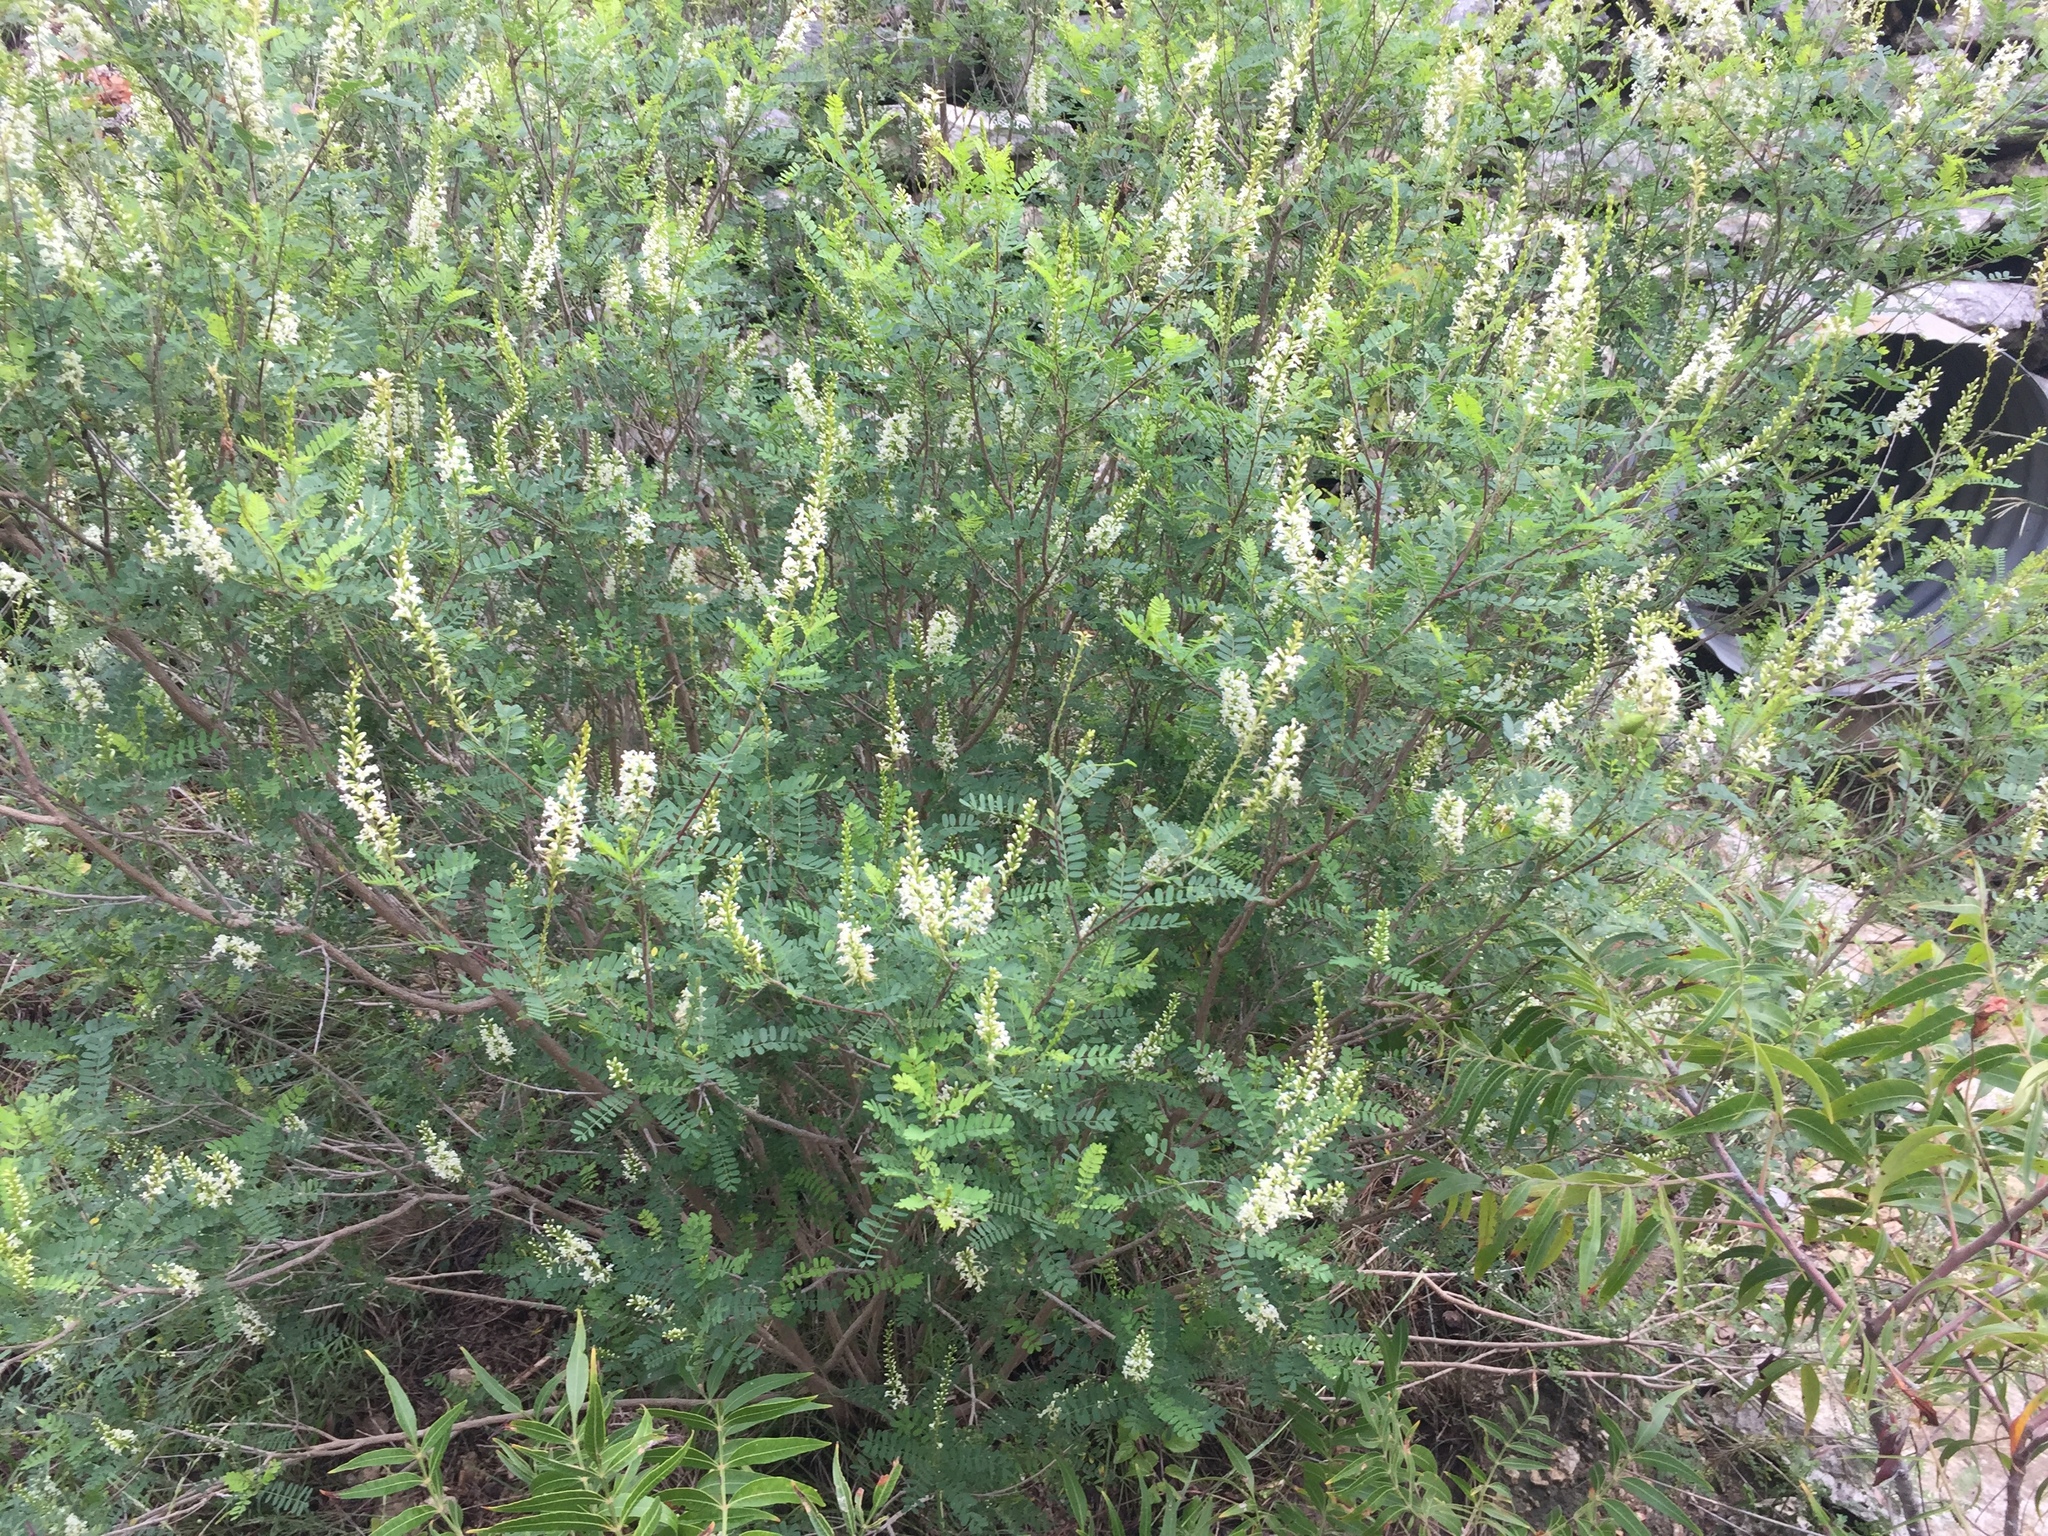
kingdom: Plantae
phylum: Tracheophyta
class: Magnoliopsida
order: Fabales
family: Fabaceae
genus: Eysenhardtia
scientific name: Eysenhardtia texana
